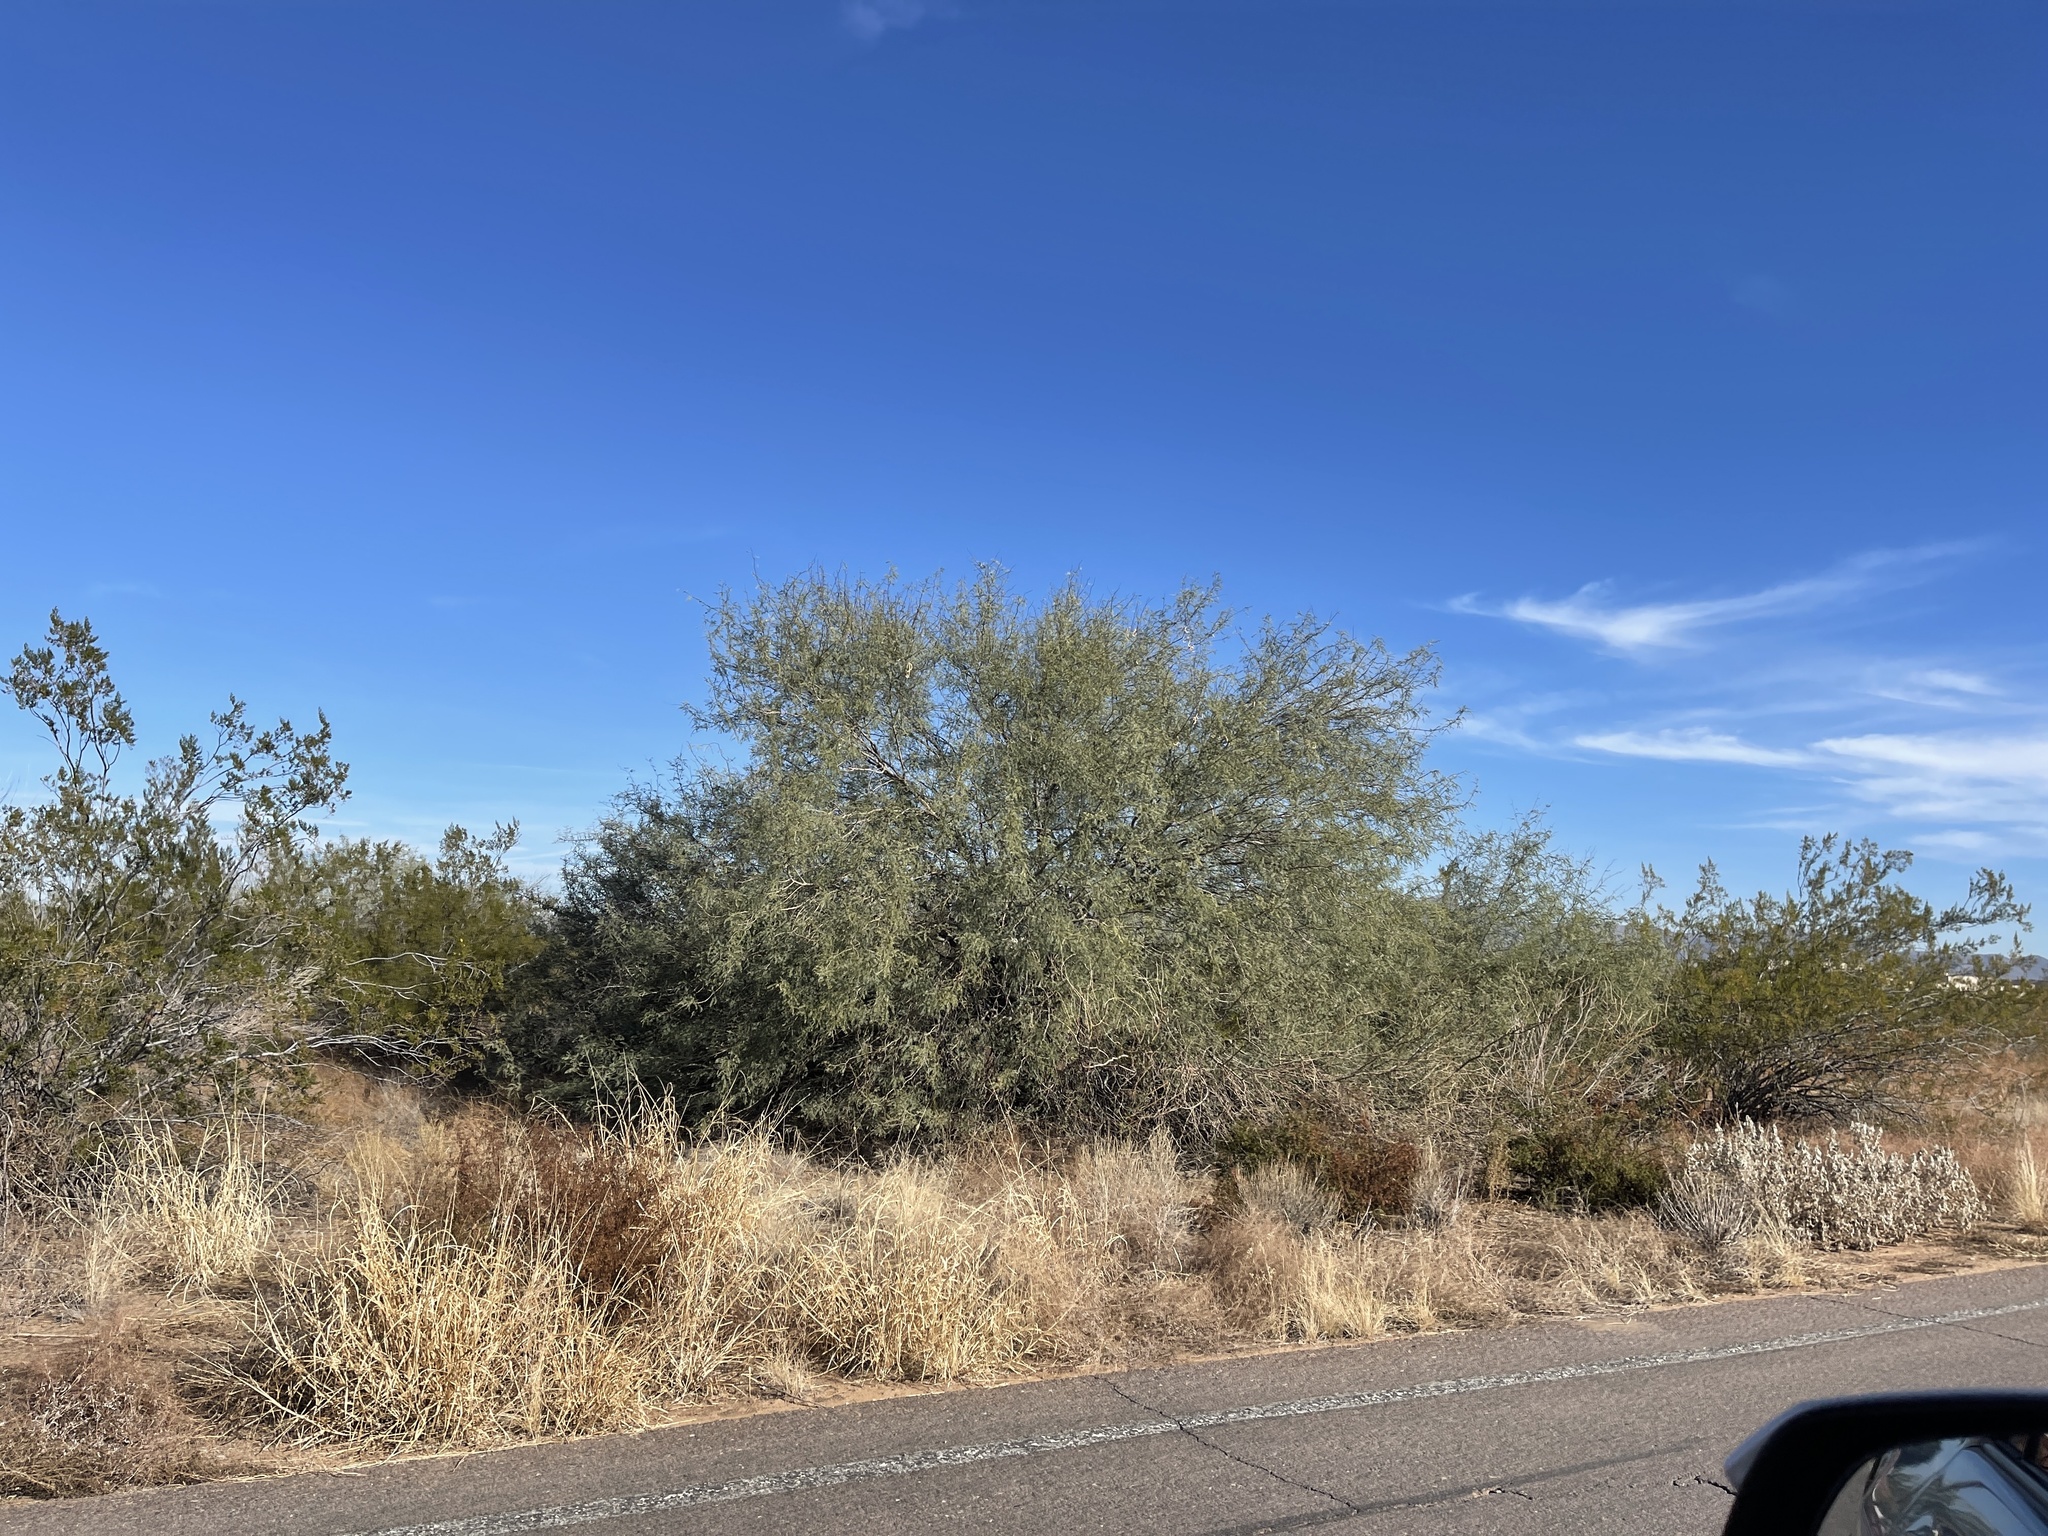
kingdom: Plantae
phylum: Tracheophyta
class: Magnoliopsida
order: Fabales
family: Fabaceae
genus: Prosopis
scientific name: Prosopis velutina
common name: Velvet mesquite
